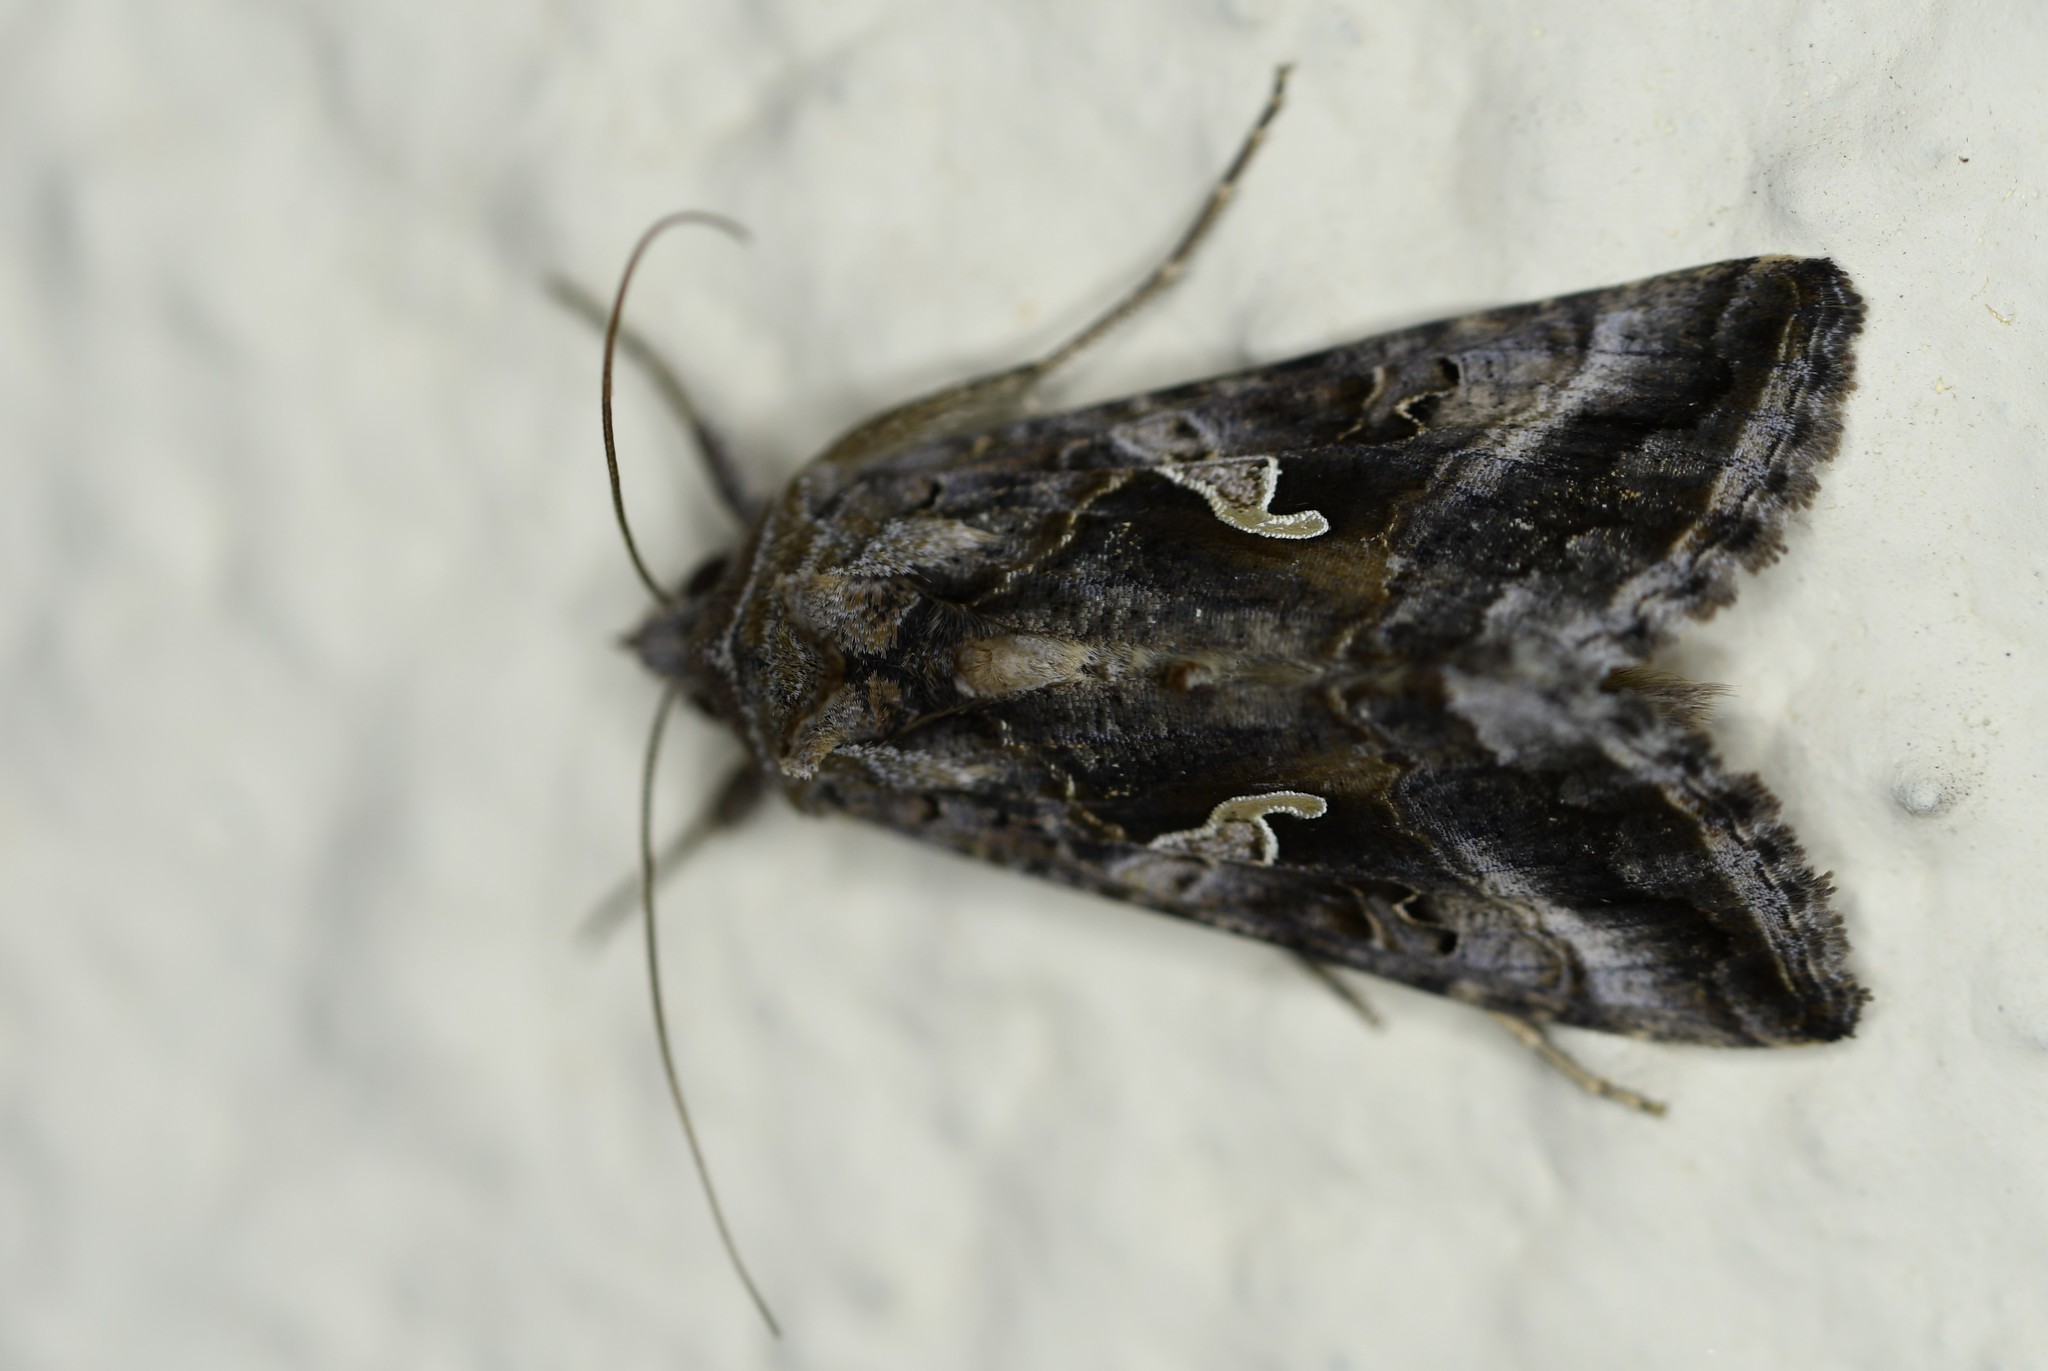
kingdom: Animalia
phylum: Arthropoda
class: Insecta
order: Lepidoptera
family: Noctuidae
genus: Autographa
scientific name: Autographa gamma
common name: Silver y
